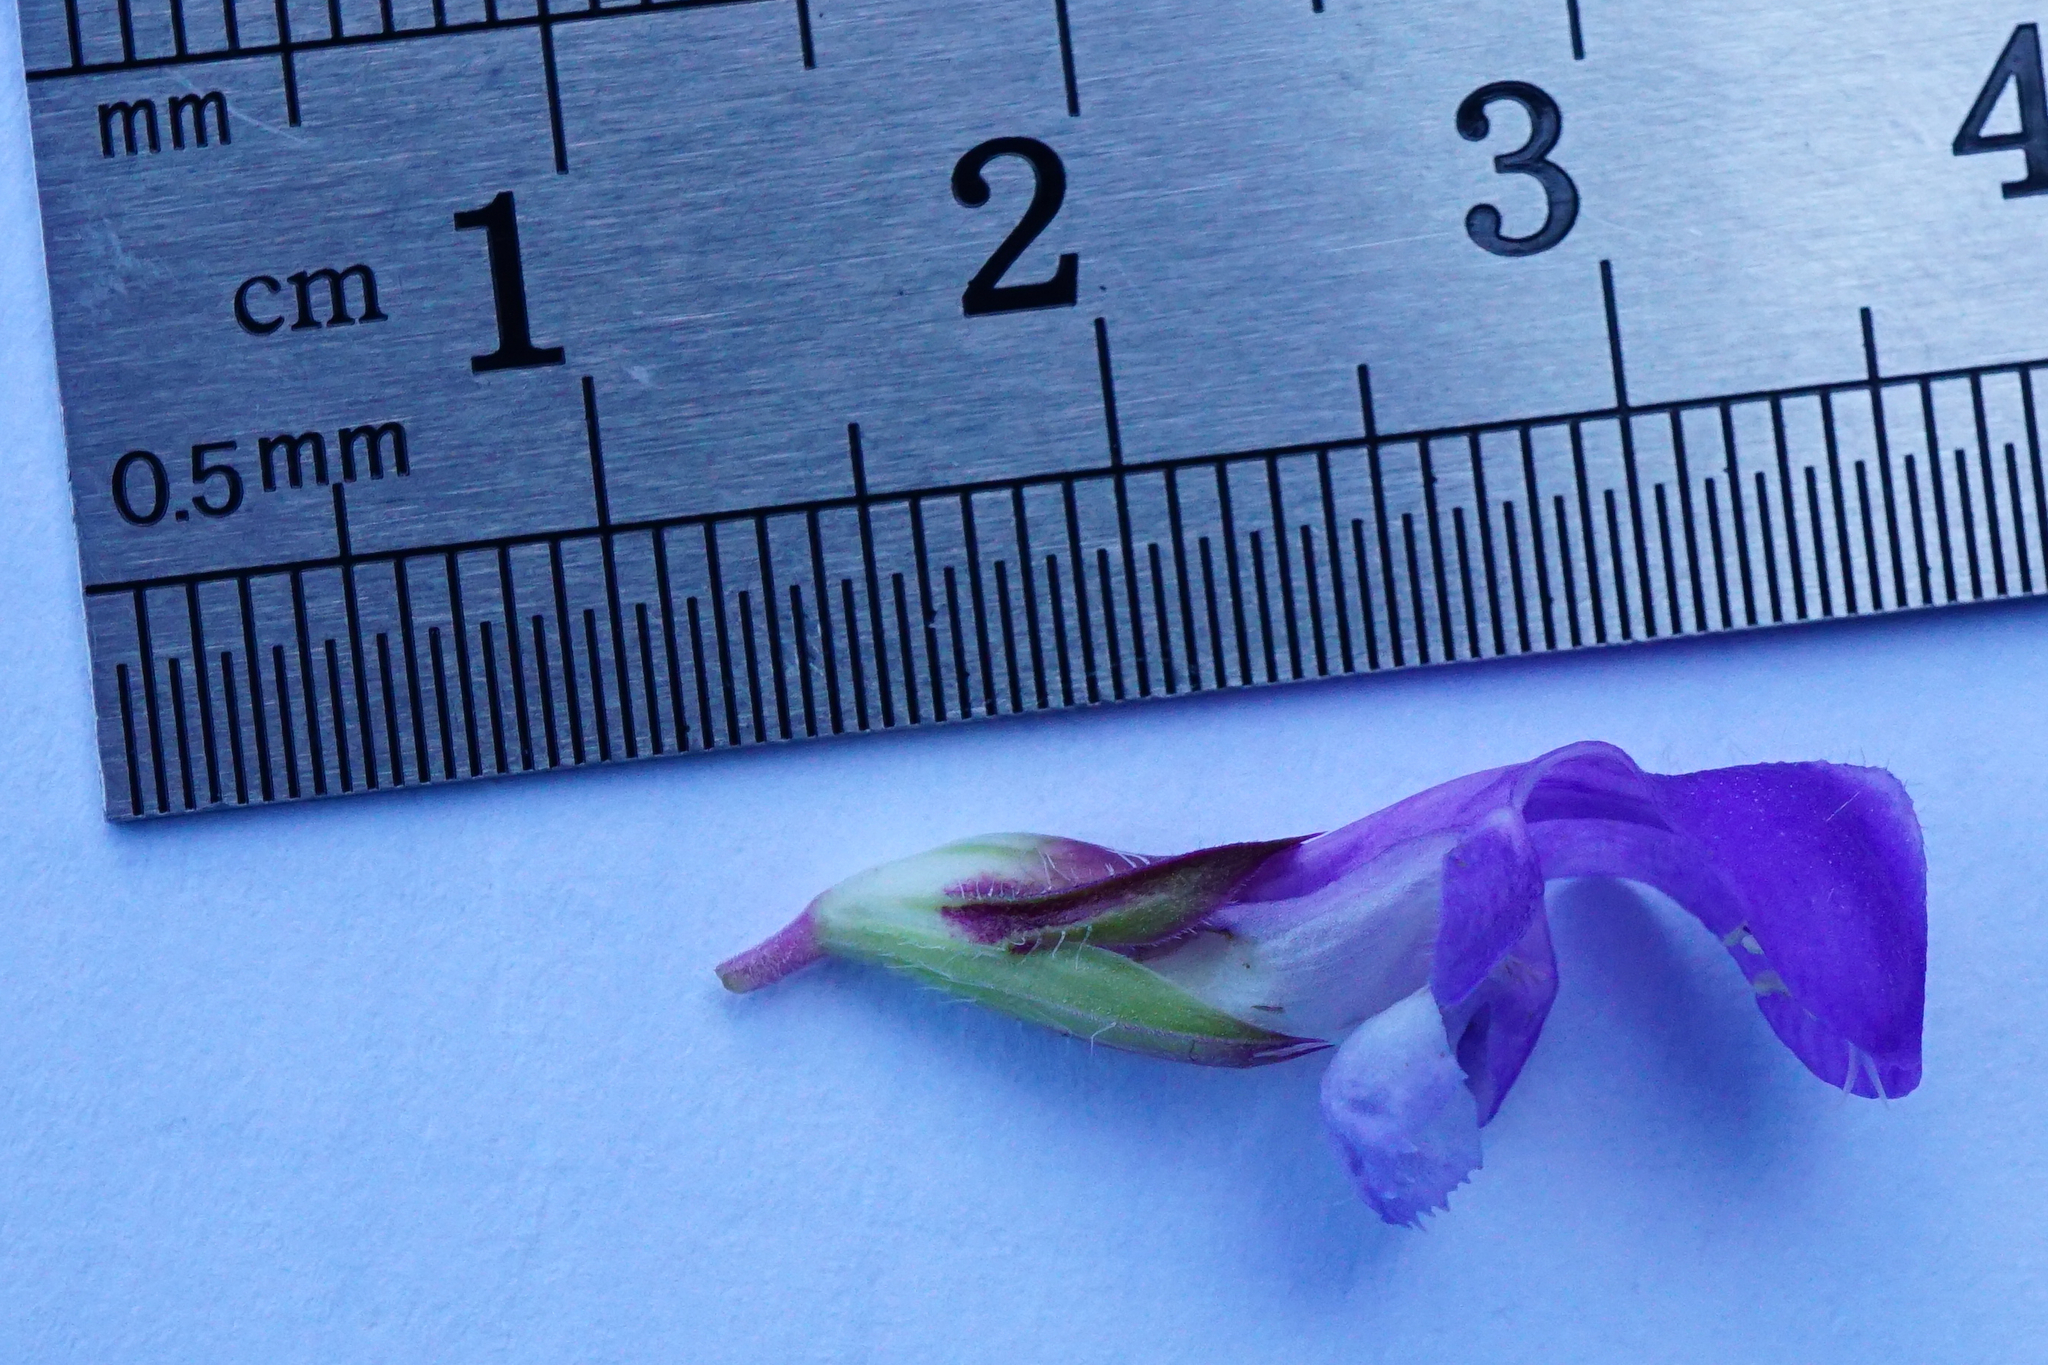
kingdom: Plantae
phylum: Tracheophyta
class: Magnoliopsida
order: Lamiales
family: Lamiaceae
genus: Prunella
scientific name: Prunella grandiflora
